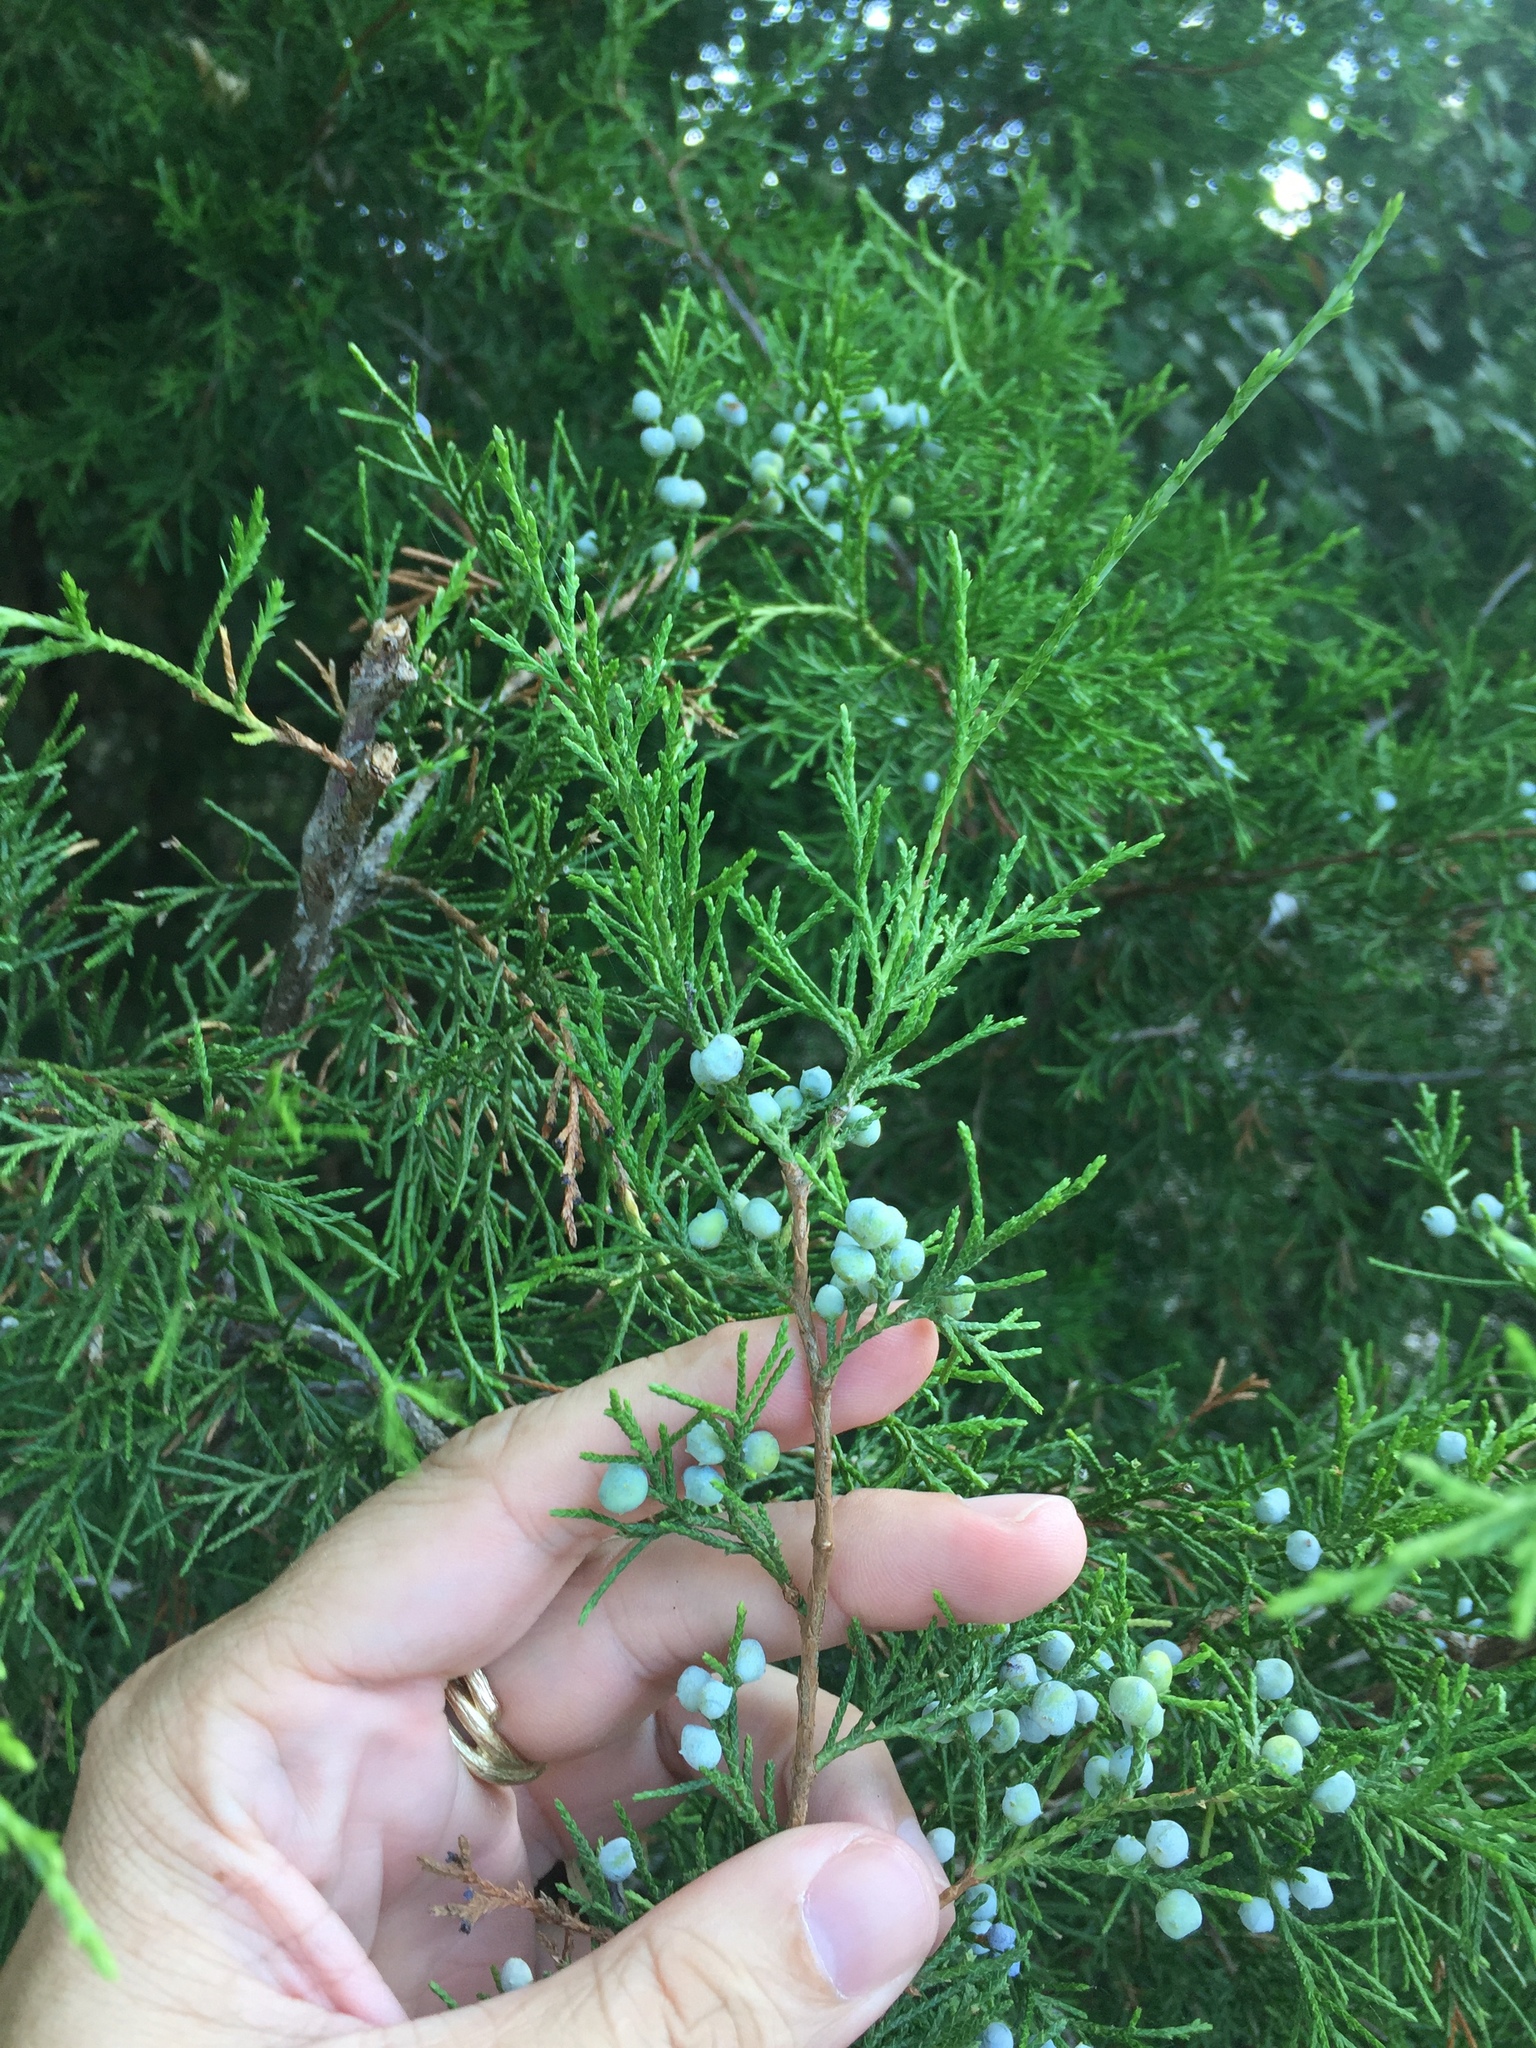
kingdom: Plantae
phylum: Tracheophyta
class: Pinopsida
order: Pinales
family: Cupressaceae
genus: Juniperus
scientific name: Juniperus virginiana
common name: Red juniper
